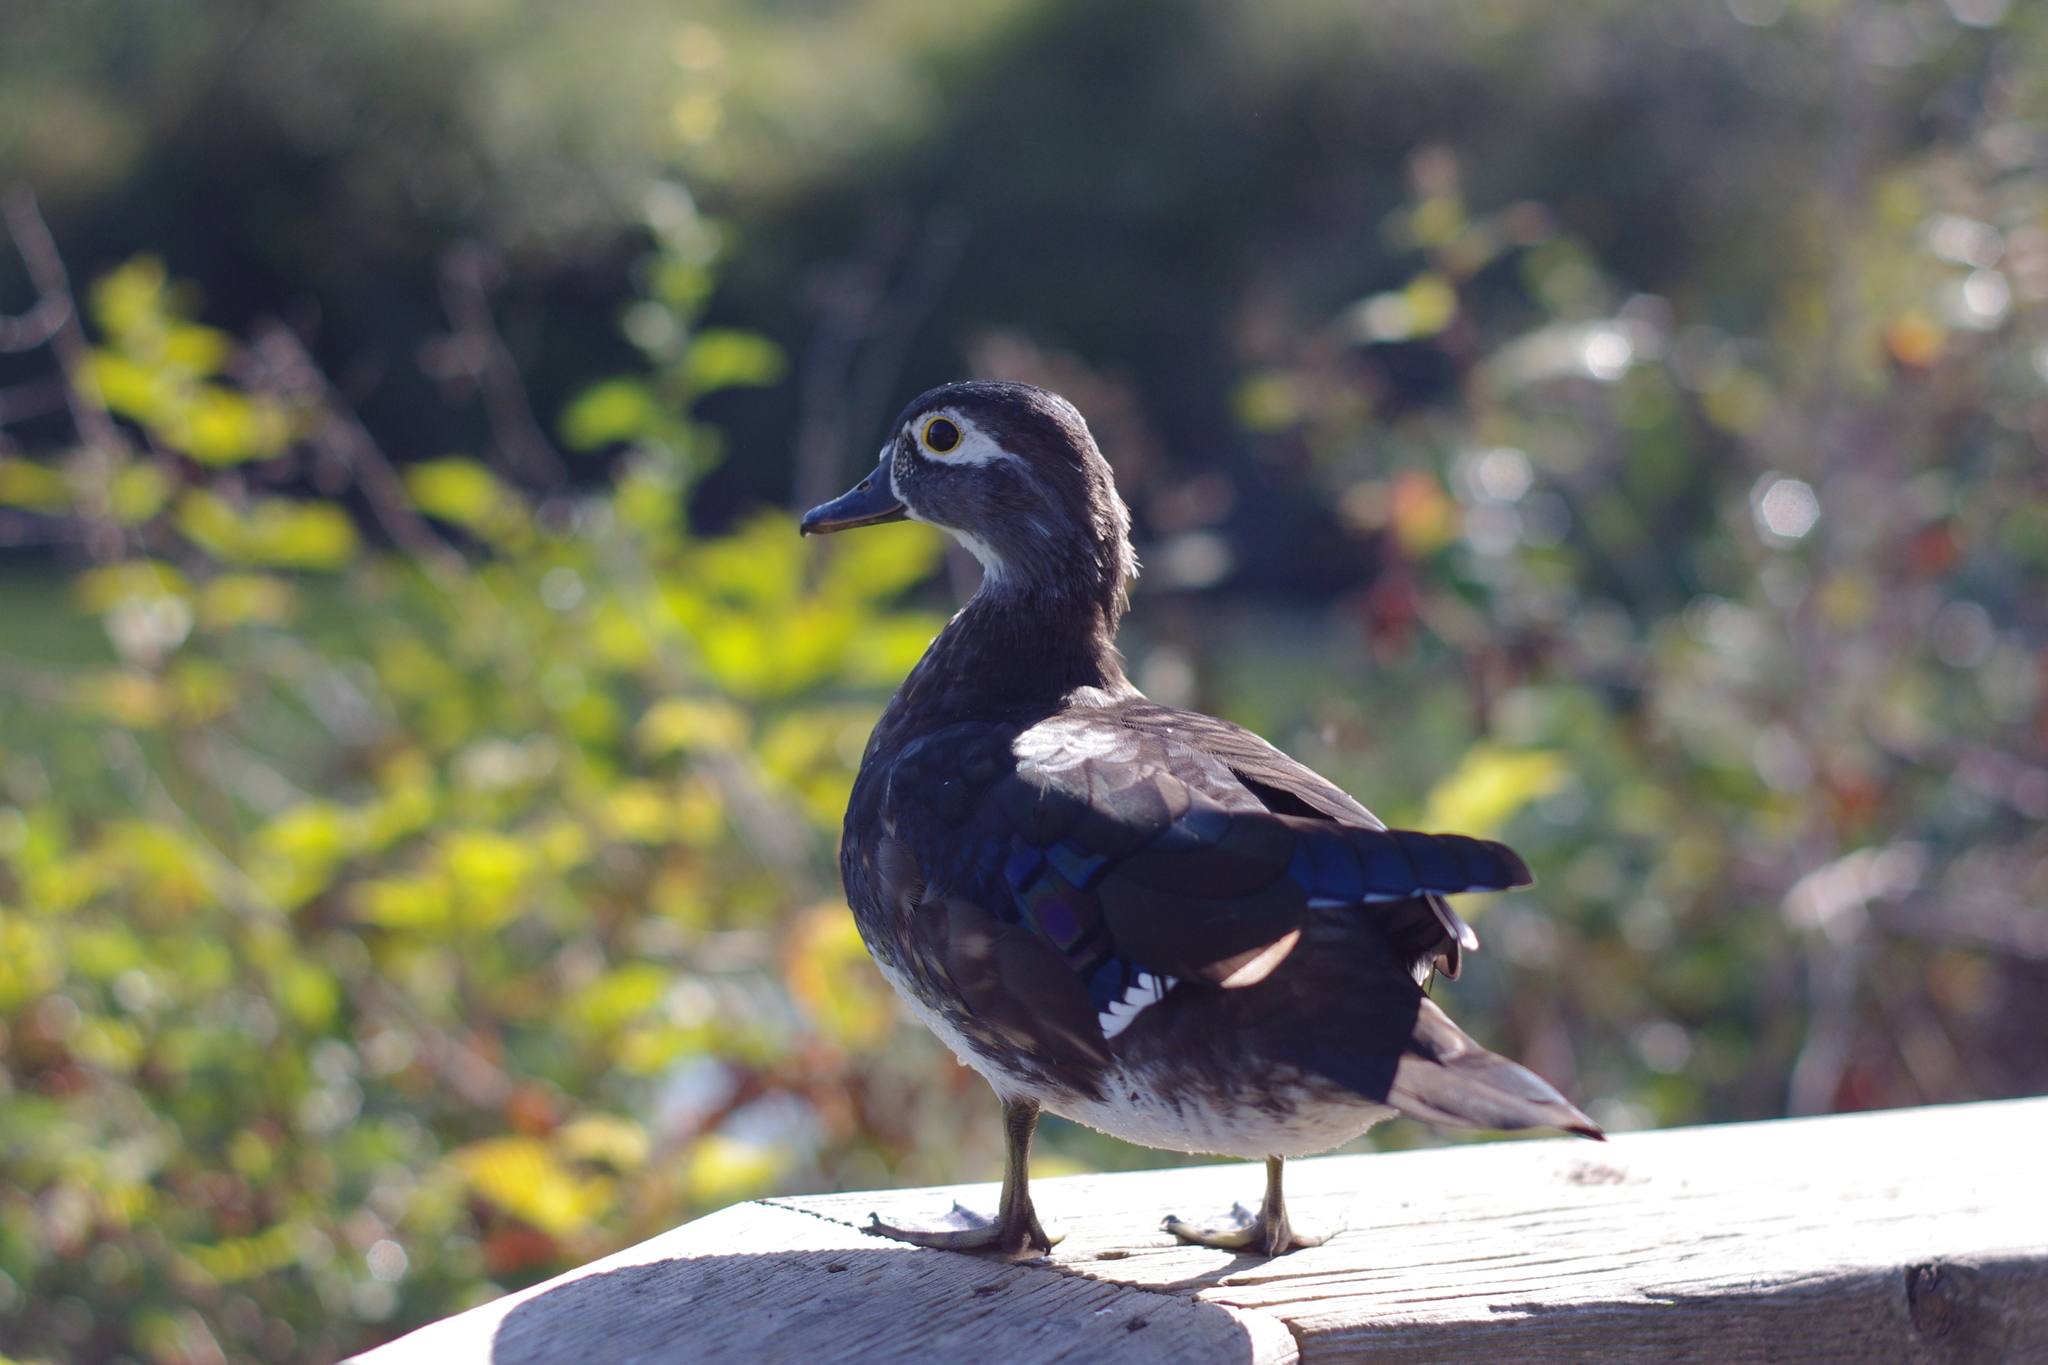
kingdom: Animalia
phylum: Chordata
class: Aves
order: Anseriformes
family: Anatidae
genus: Aix
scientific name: Aix sponsa
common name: Wood duck
